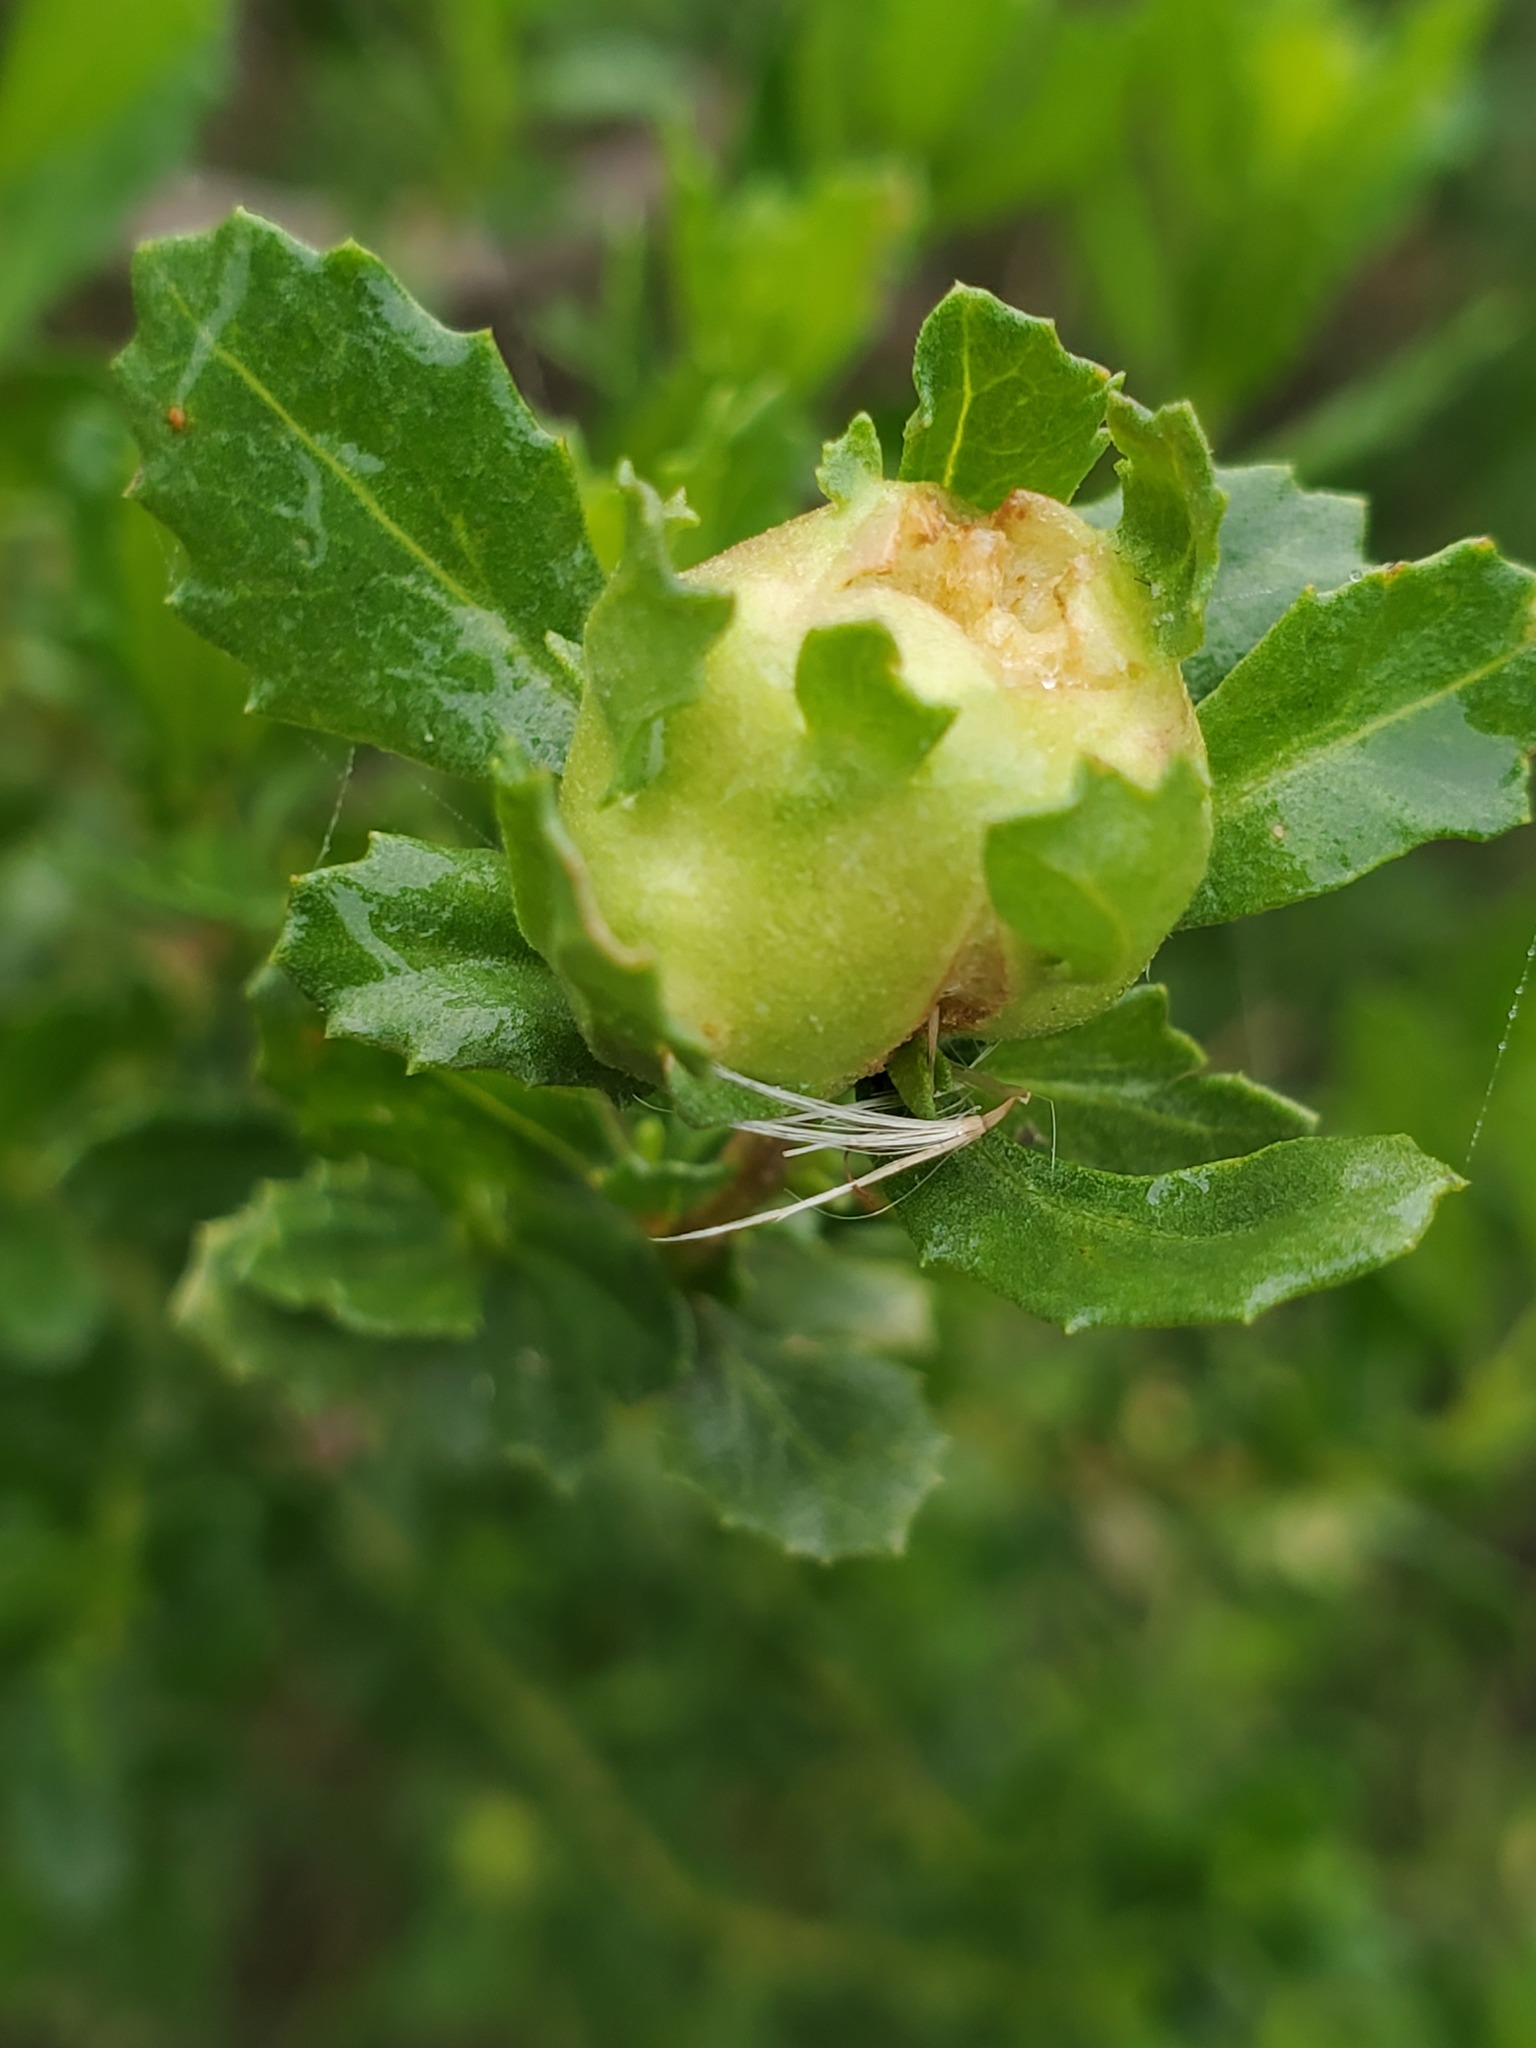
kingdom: Animalia
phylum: Arthropoda
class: Insecta
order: Diptera
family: Cecidomyiidae
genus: Rhopalomyia
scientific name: Rhopalomyia californica
